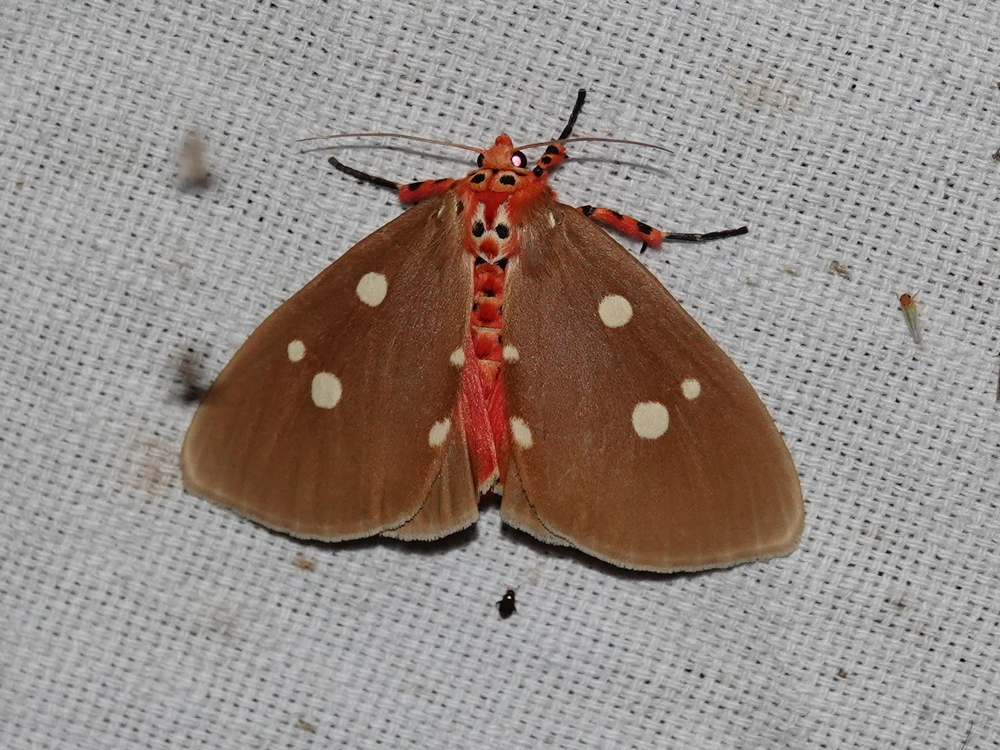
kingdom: Animalia
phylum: Arthropoda
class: Insecta
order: Lepidoptera
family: Erebidae
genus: Tinolius
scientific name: Tinolius eburneigutta
